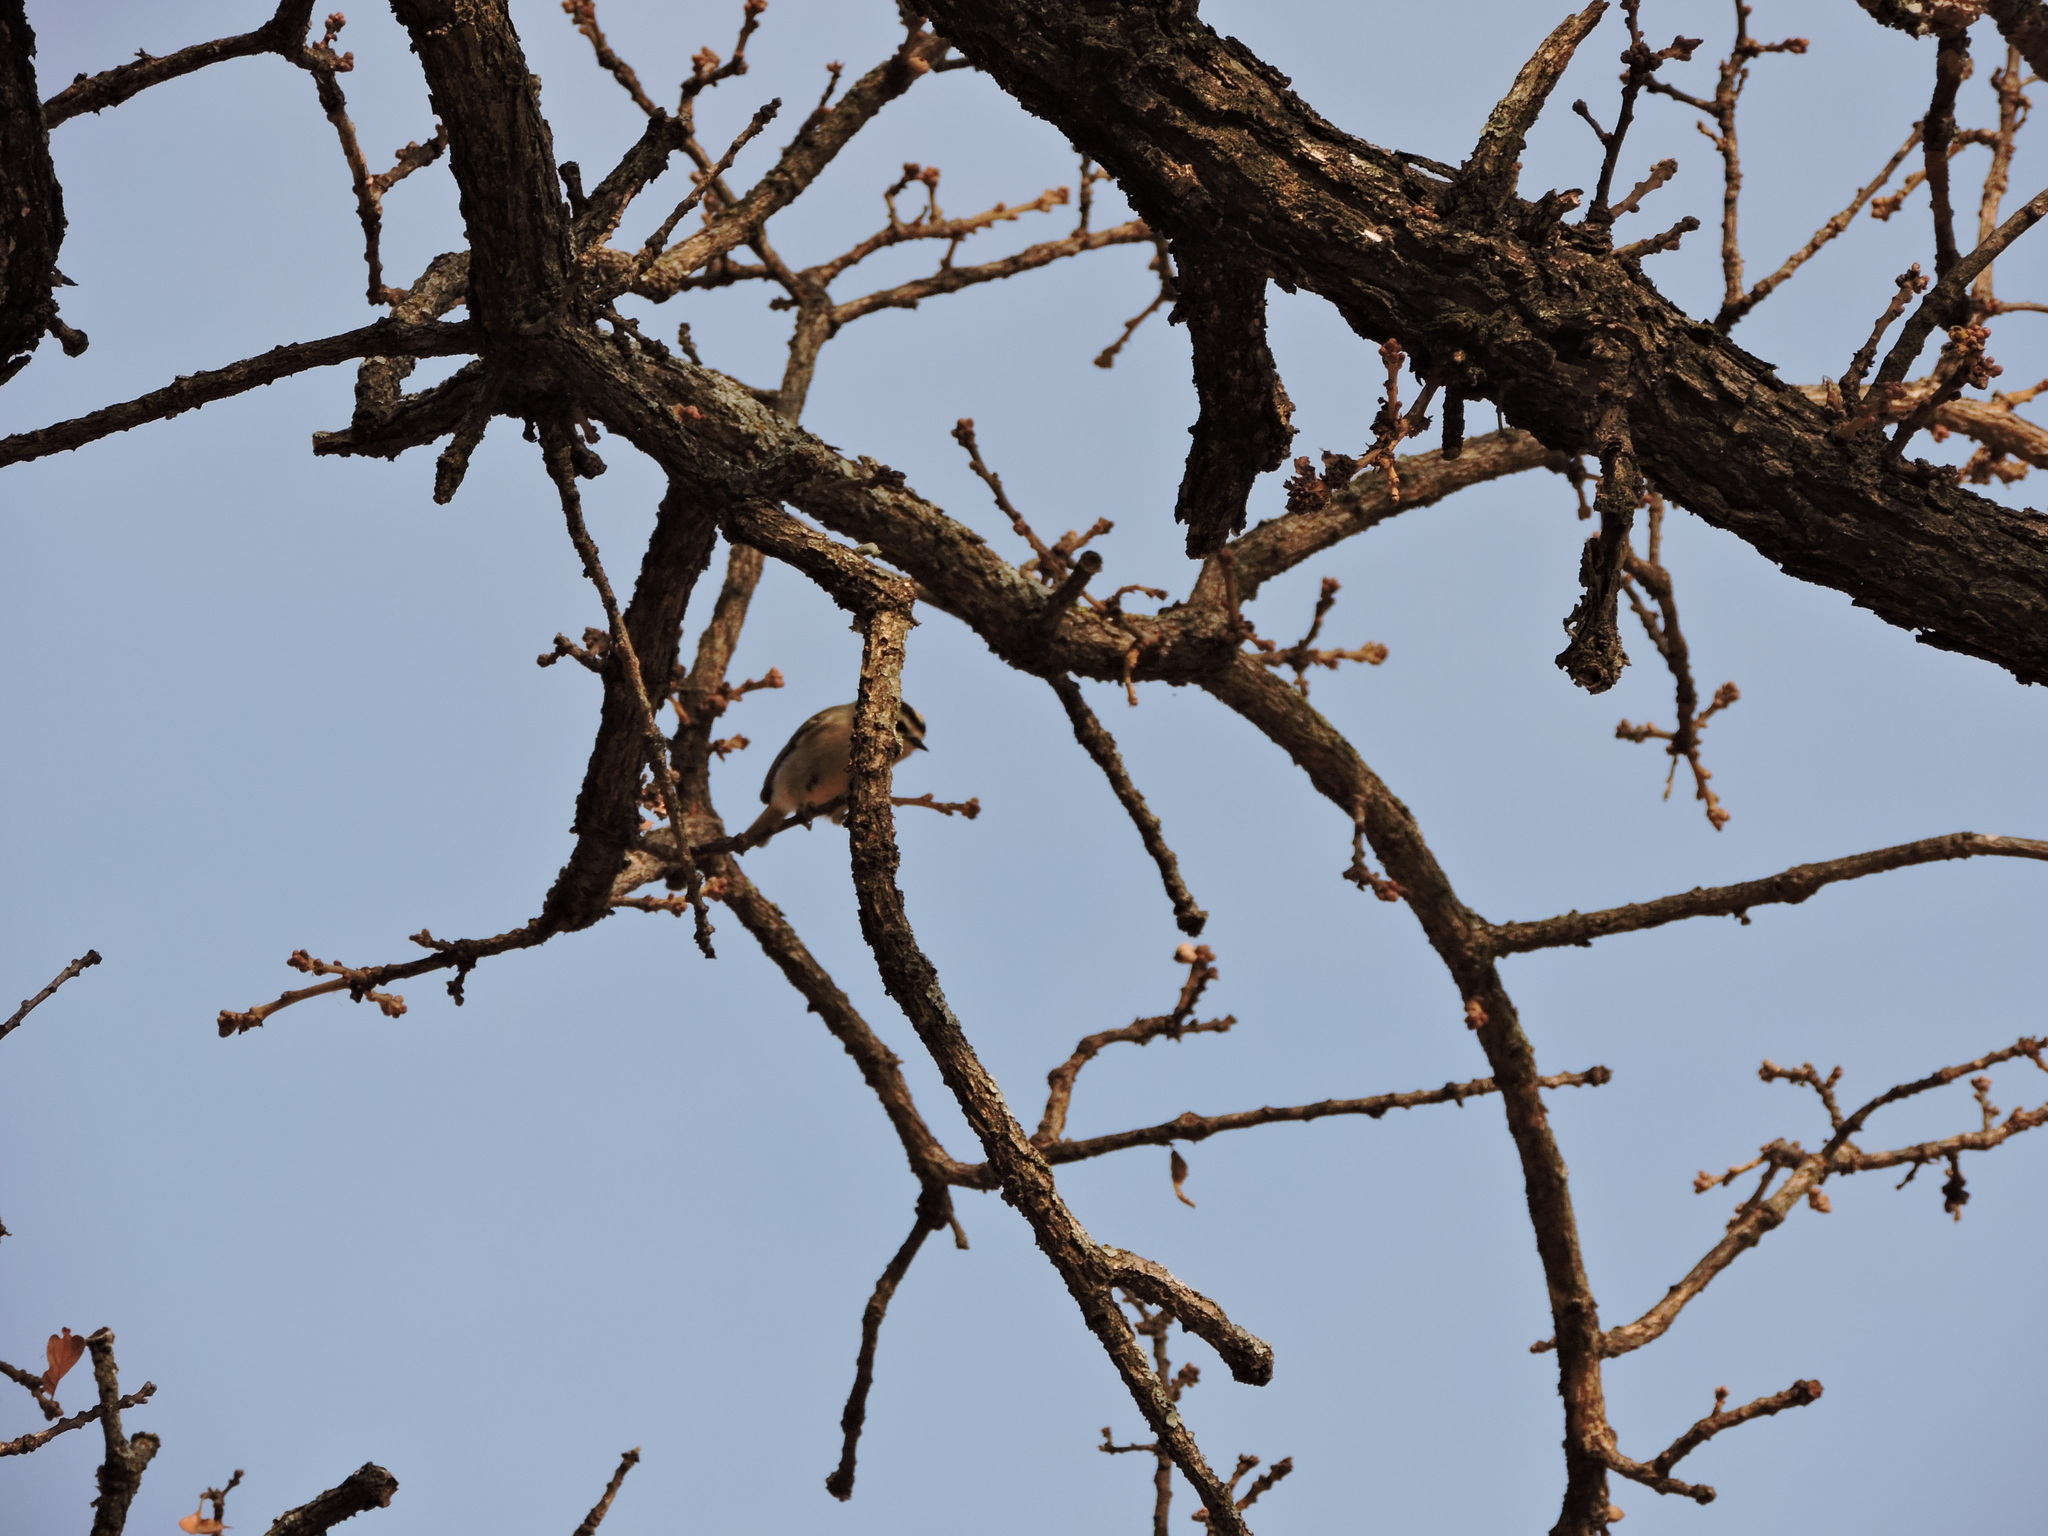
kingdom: Animalia
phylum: Chordata
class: Aves
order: Passeriformes
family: Regulidae
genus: Regulus
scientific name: Regulus satrapa
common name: Golden-crowned kinglet
